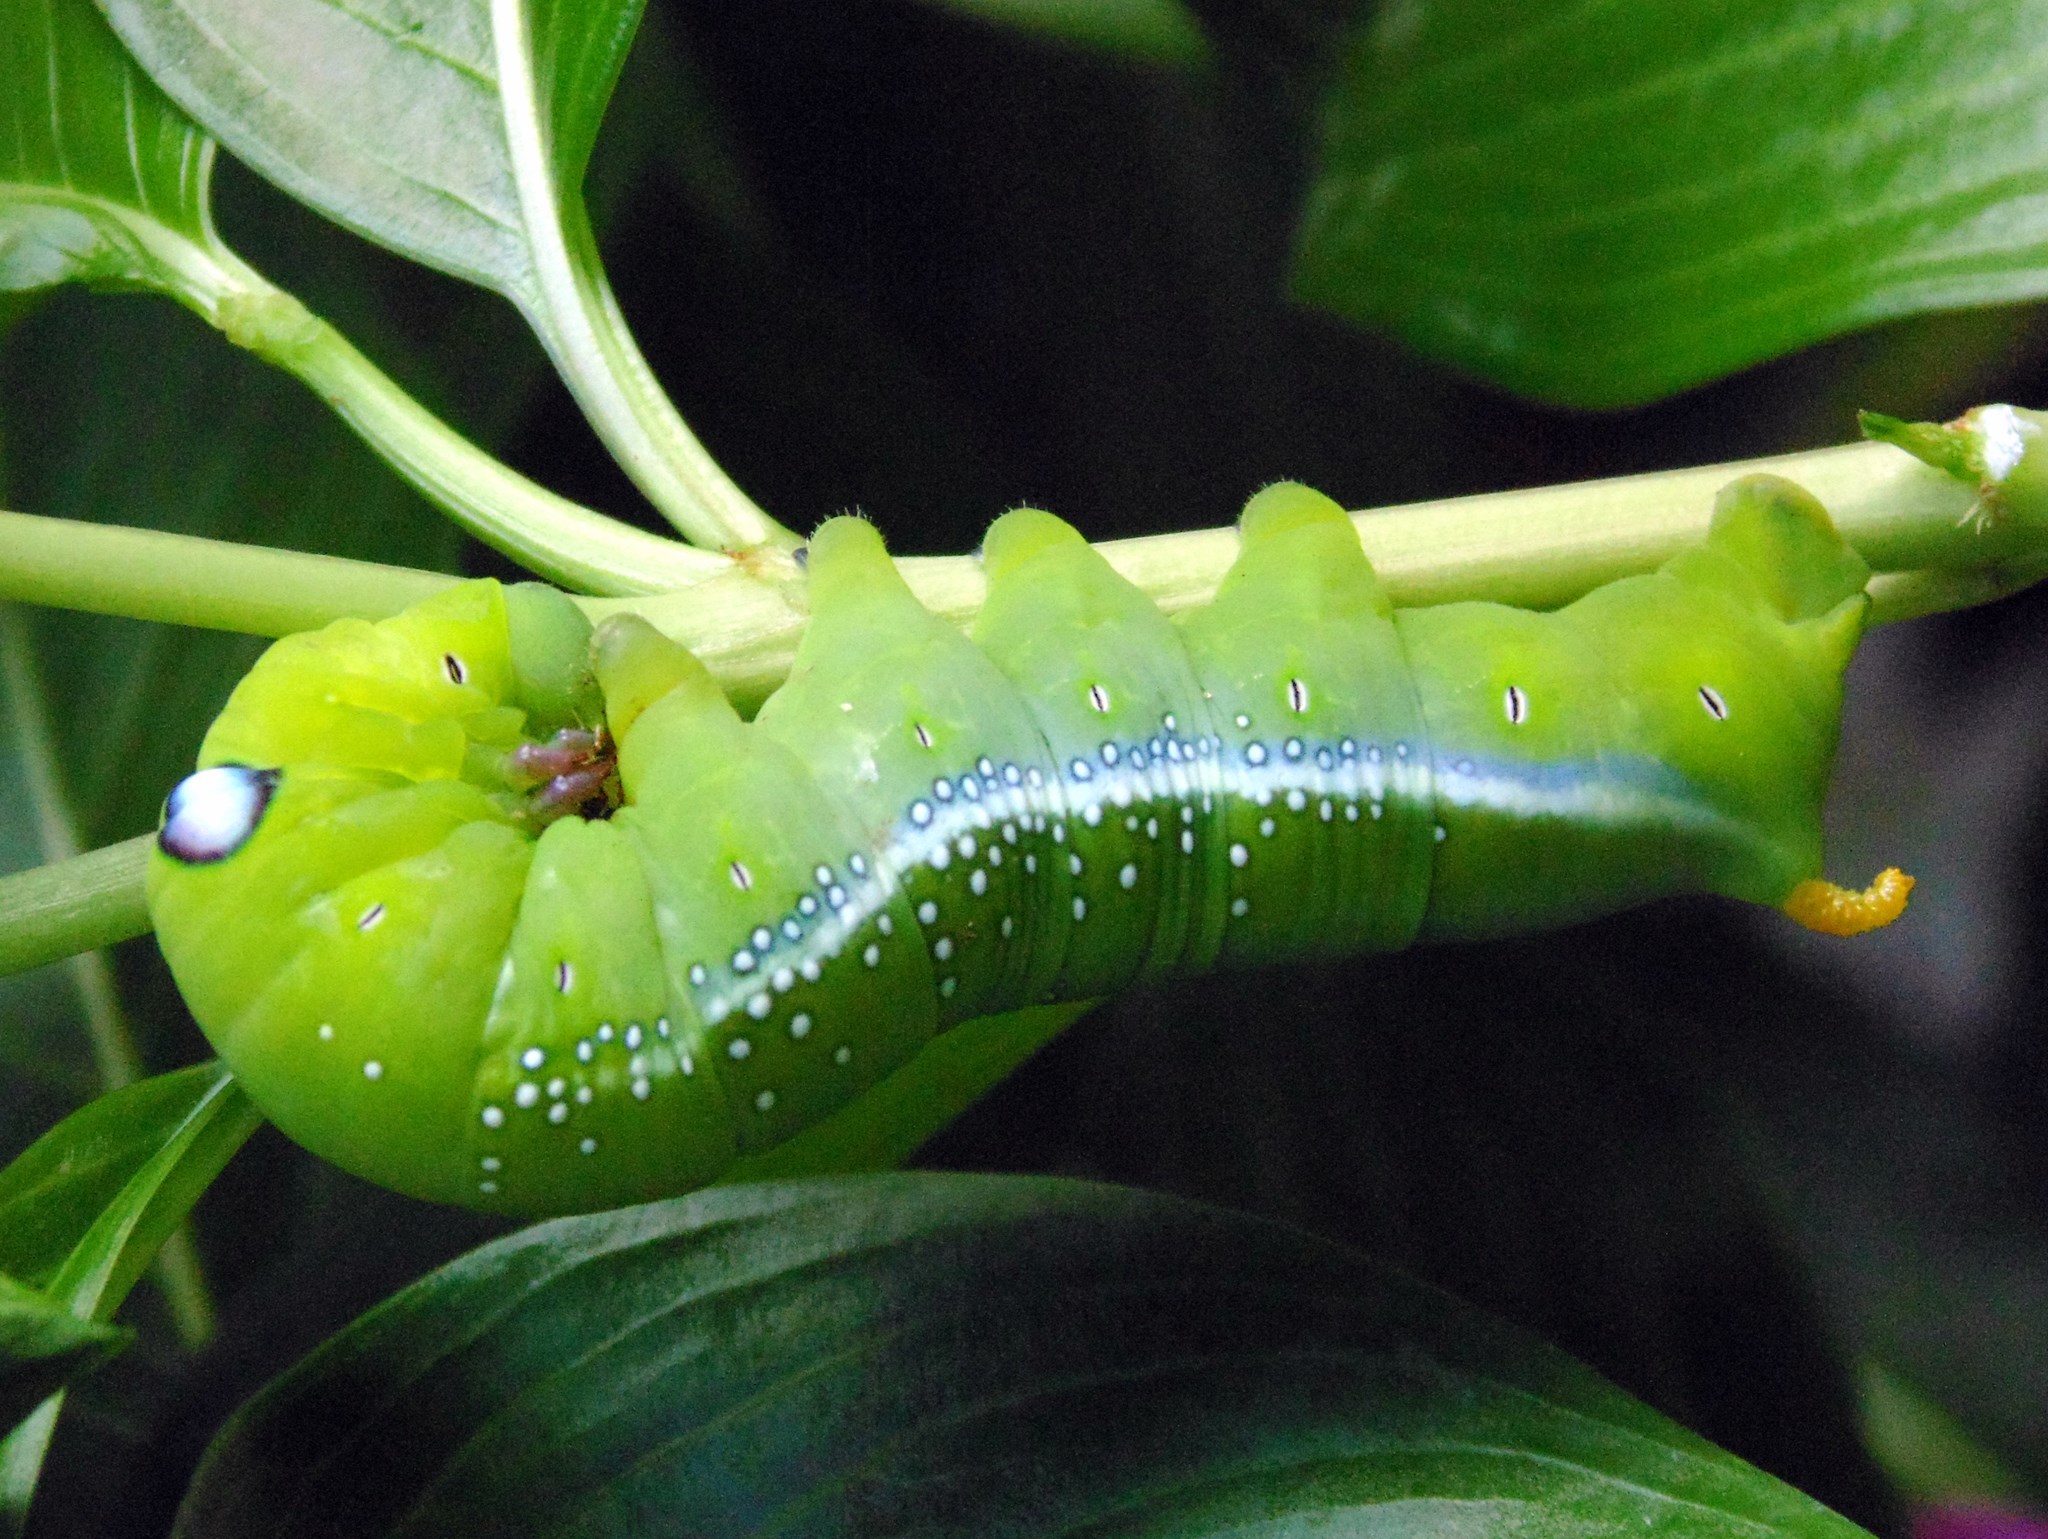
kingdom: Animalia
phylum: Arthropoda
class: Insecta
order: Lepidoptera
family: Sphingidae
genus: Daphnis
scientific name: Daphnis nerii
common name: Oleander hawk-moth
